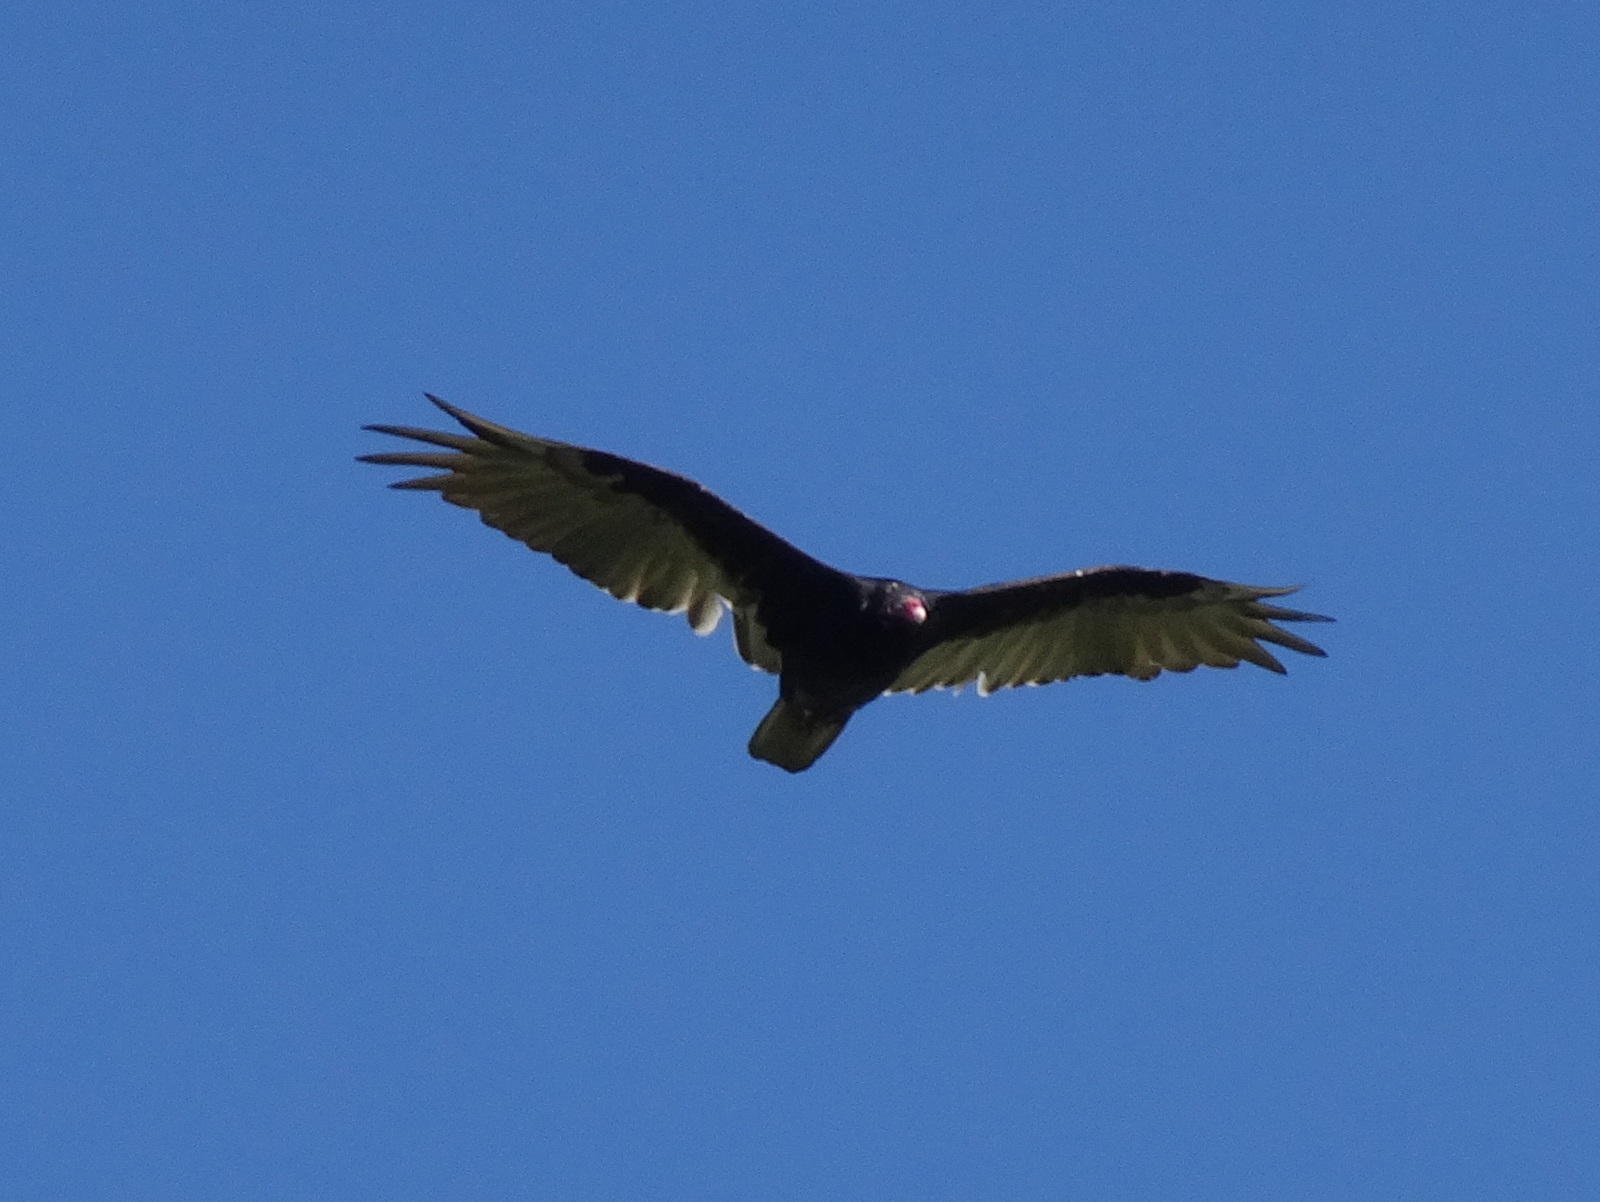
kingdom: Animalia
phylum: Chordata
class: Aves
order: Accipitriformes
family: Cathartidae
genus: Cathartes
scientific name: Cathartes aura
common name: Turkey vulture
